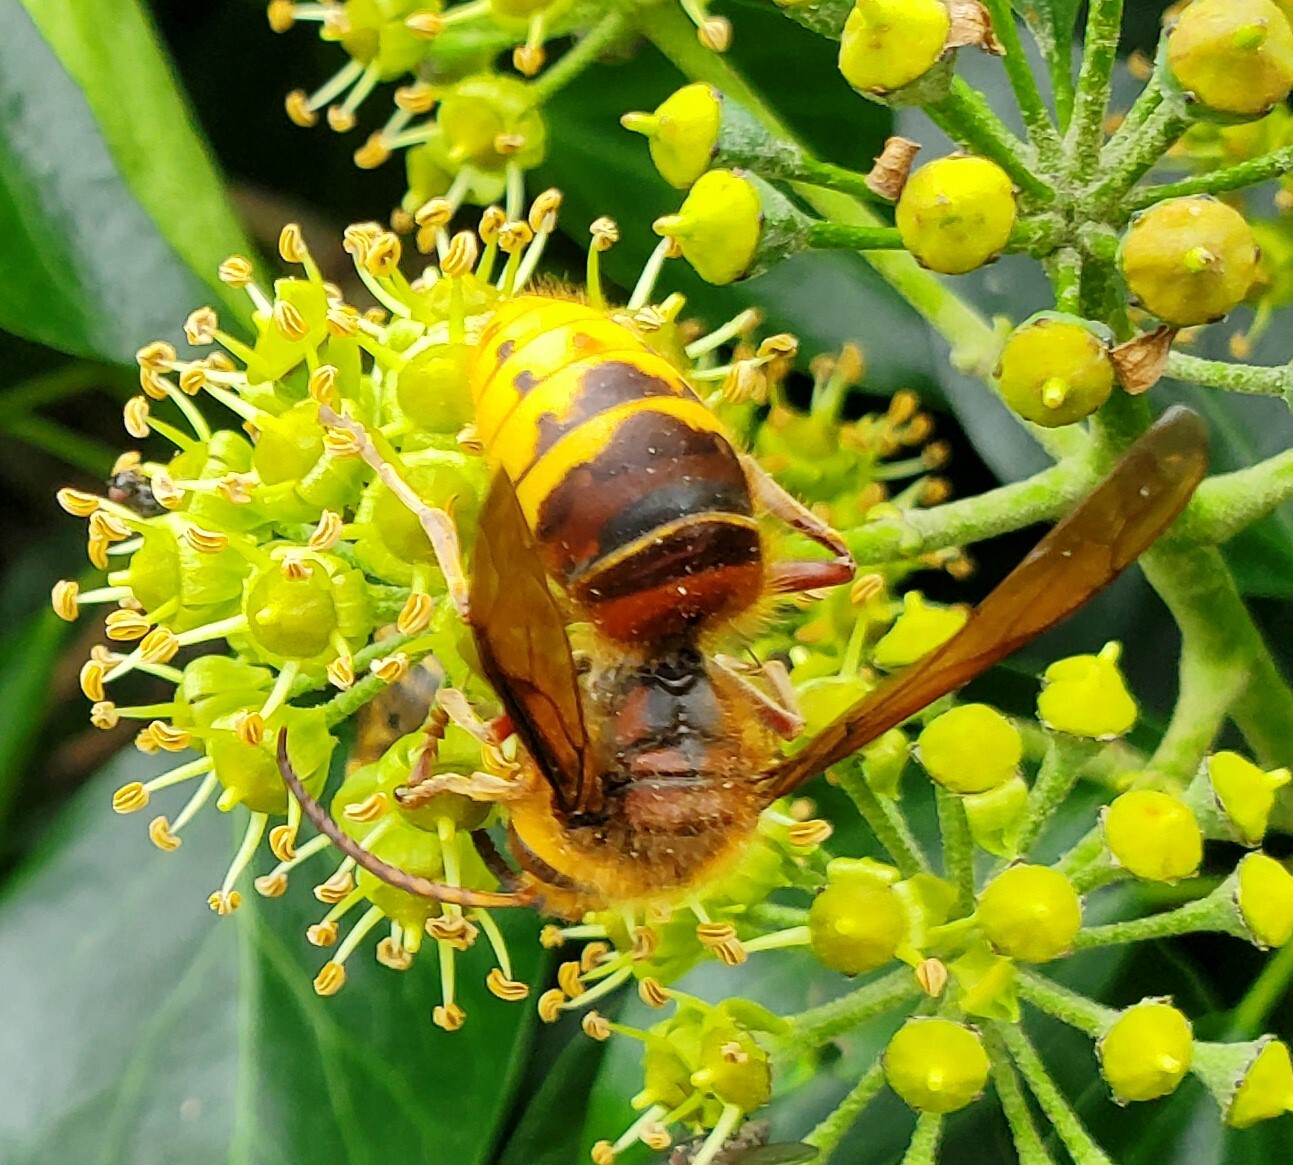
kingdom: Animalia
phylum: Arthropoda
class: Insecta
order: Hymenoptera
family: Vespidae
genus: Vespa
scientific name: Vespa crabro
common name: Hornet
